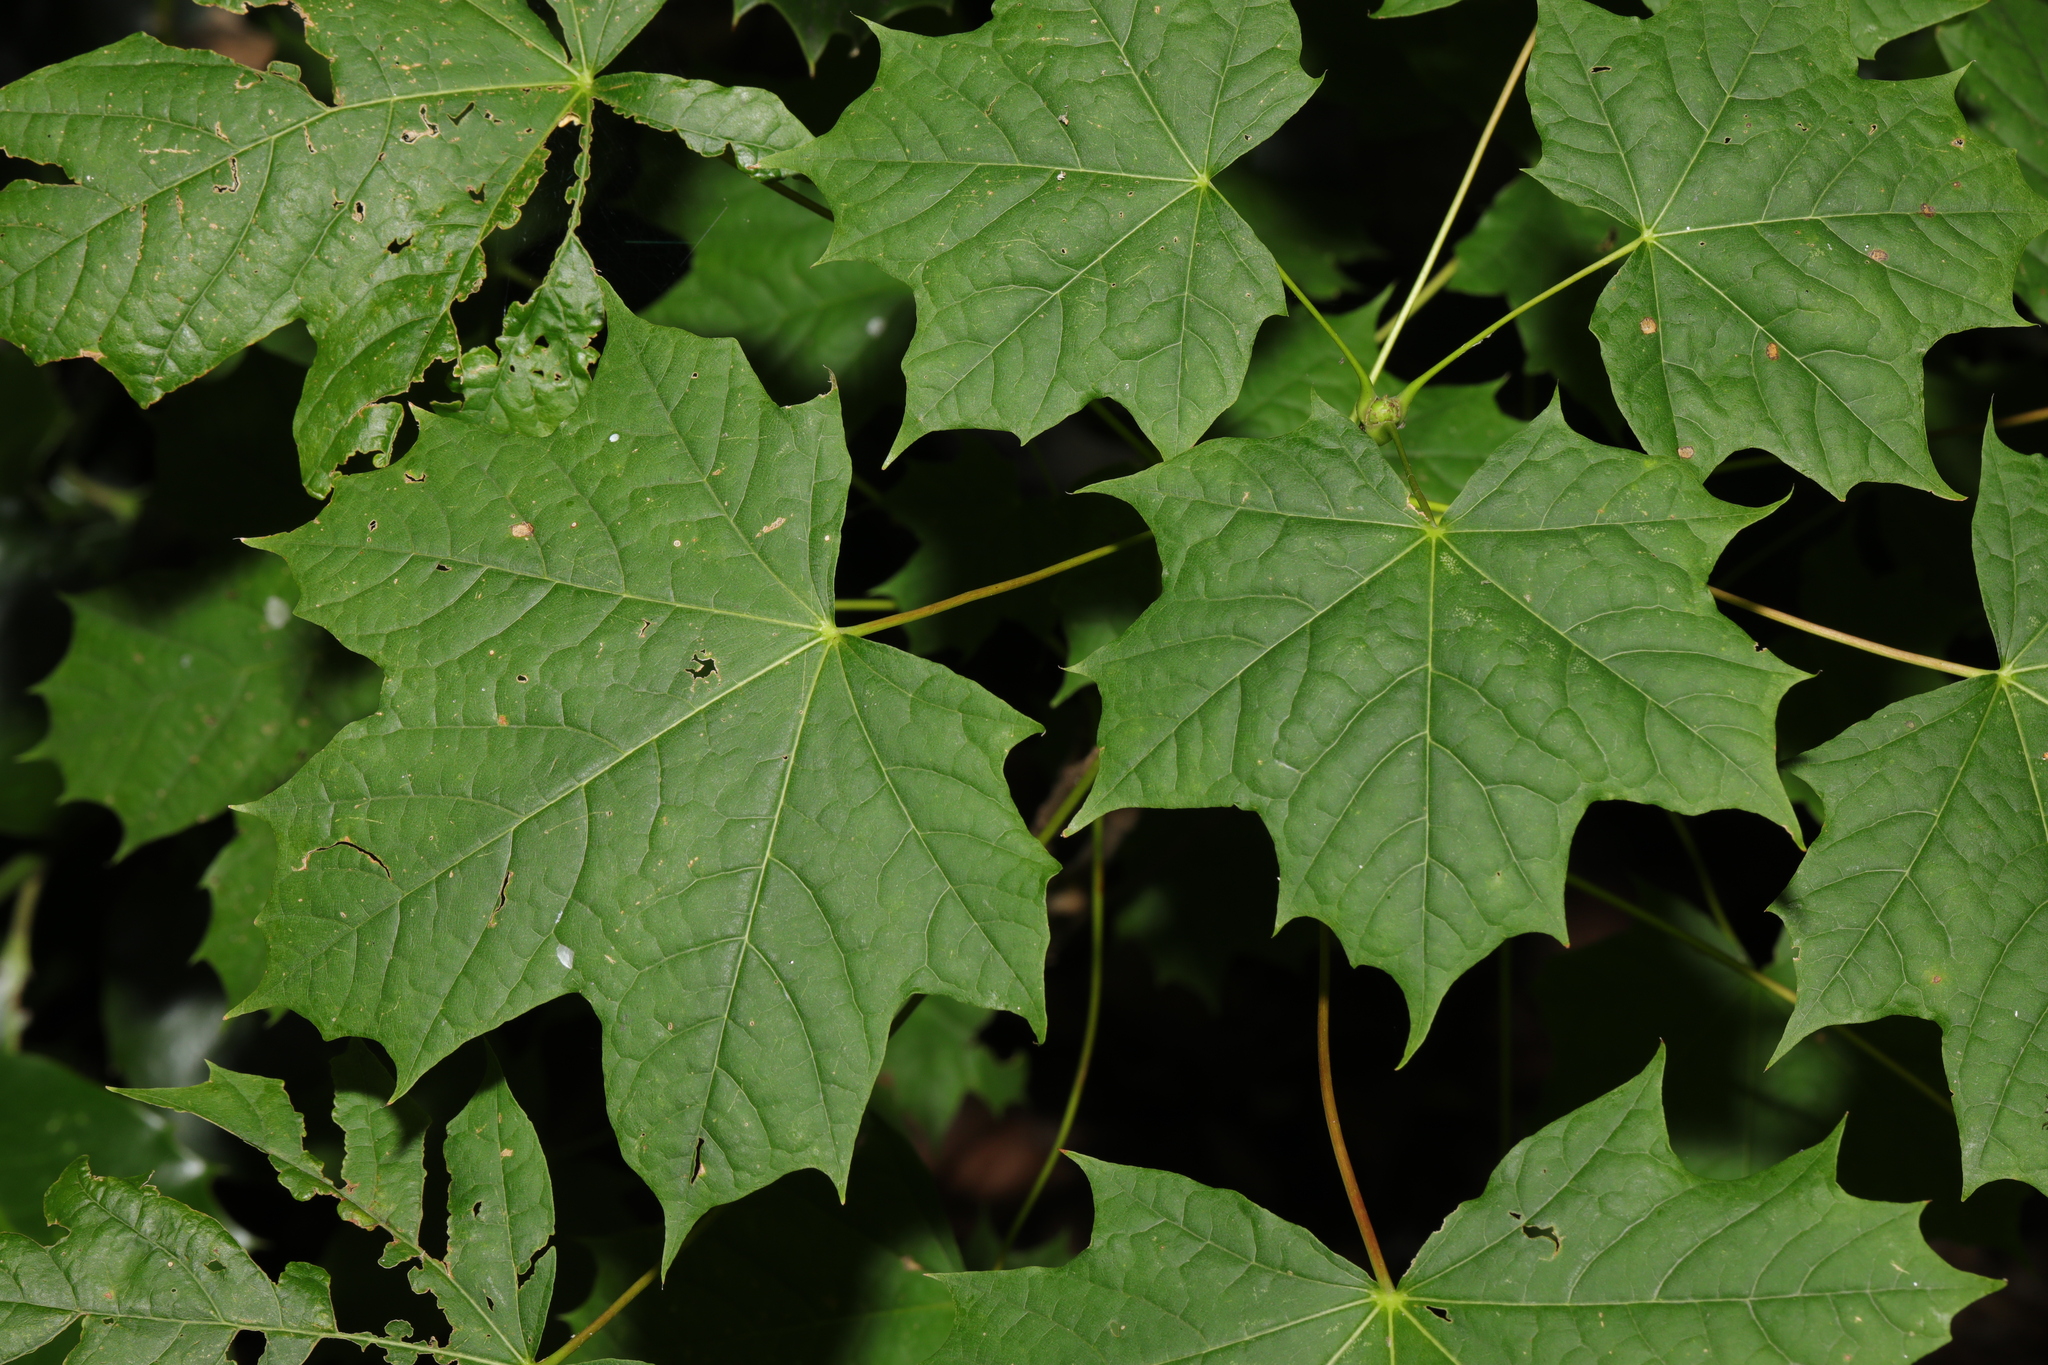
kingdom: Plantae
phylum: Tracheophyta
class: Magnoliopsida
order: Sapindales
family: Sapindaceae
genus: Acer
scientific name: Acer platanoides
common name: Norway maple
